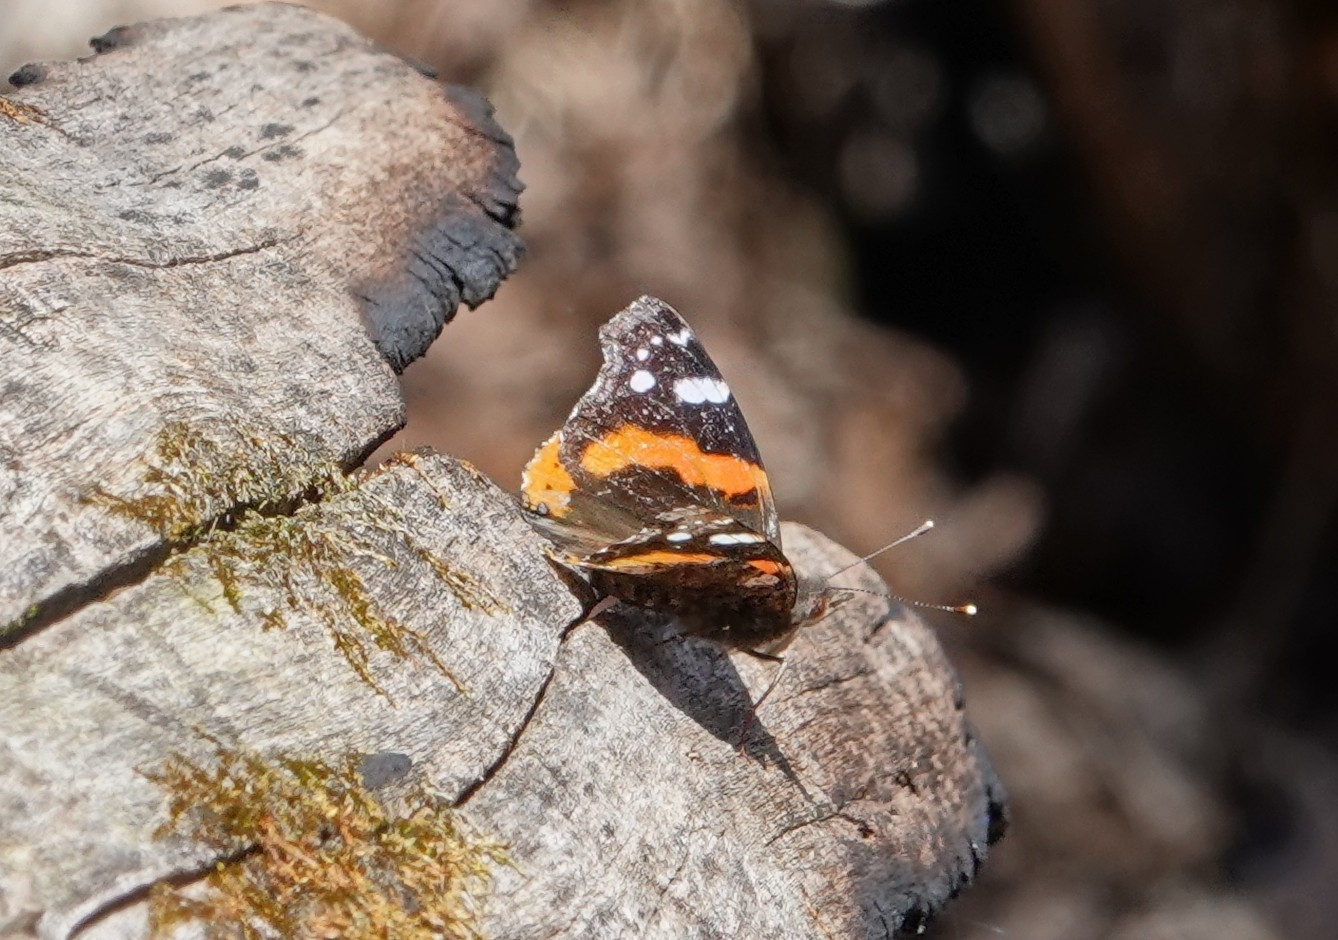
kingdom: Animalia
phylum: Arthropoda
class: Insecta
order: Lepidoptera
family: Nymphalidae
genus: Vanessa
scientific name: Vanessa atalanta
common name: Red admiral
